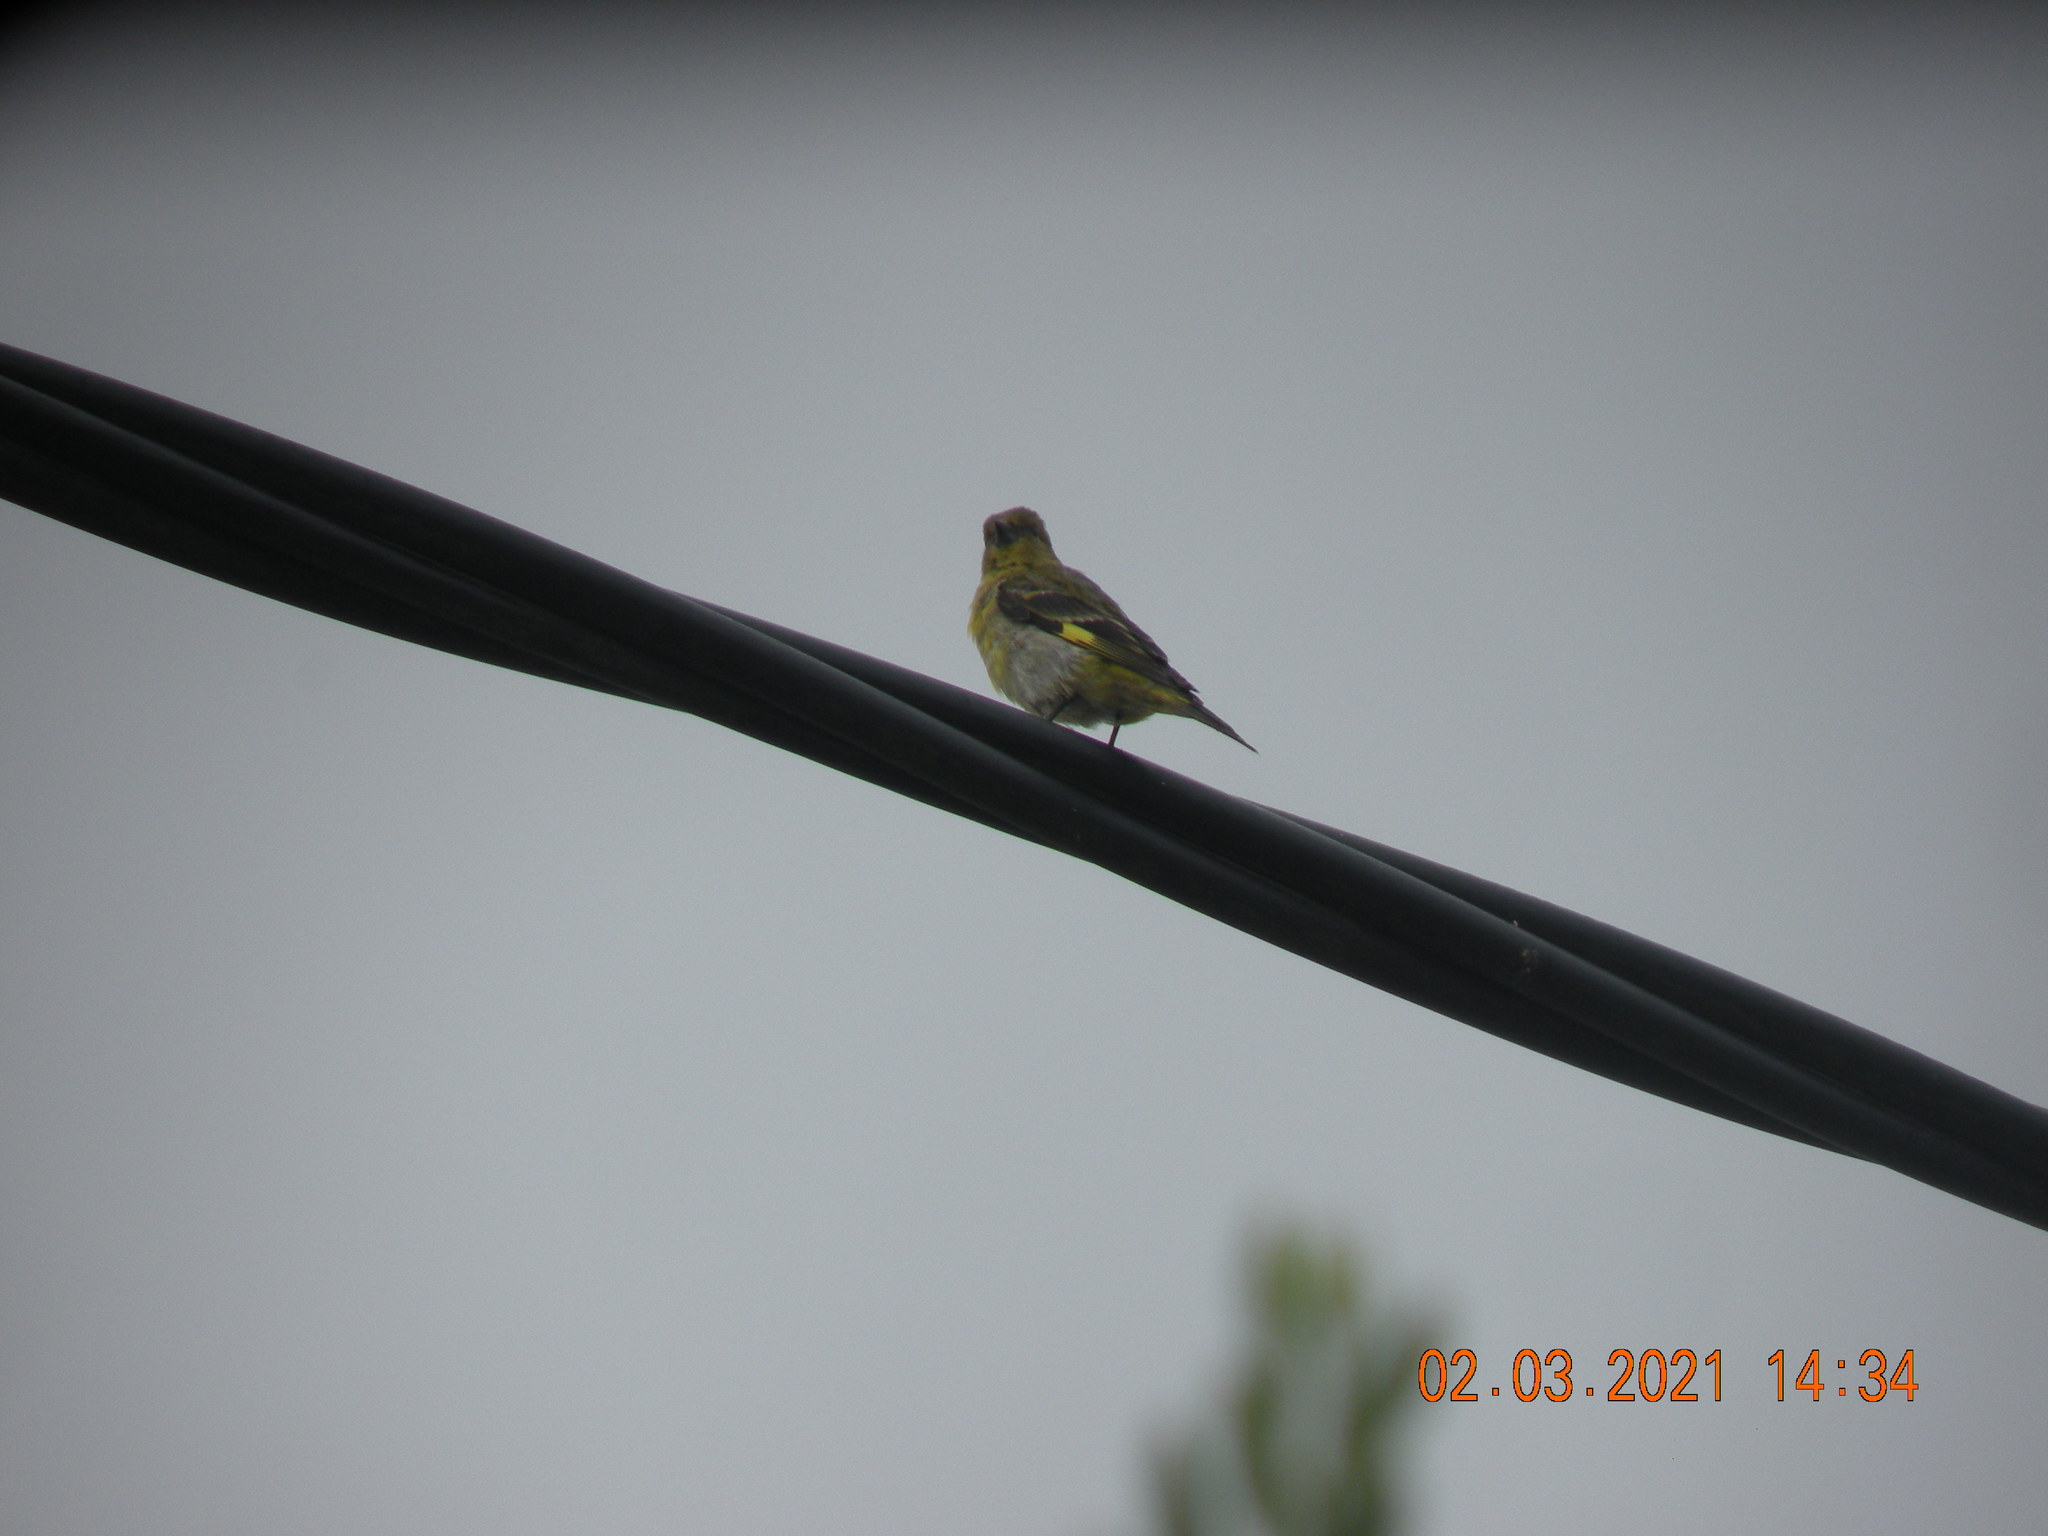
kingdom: Animalia
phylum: Chordata
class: Aves
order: Passeriformes
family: Fringillidae
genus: Spinus
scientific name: Spinus magellanicus
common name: Hooded siskin
